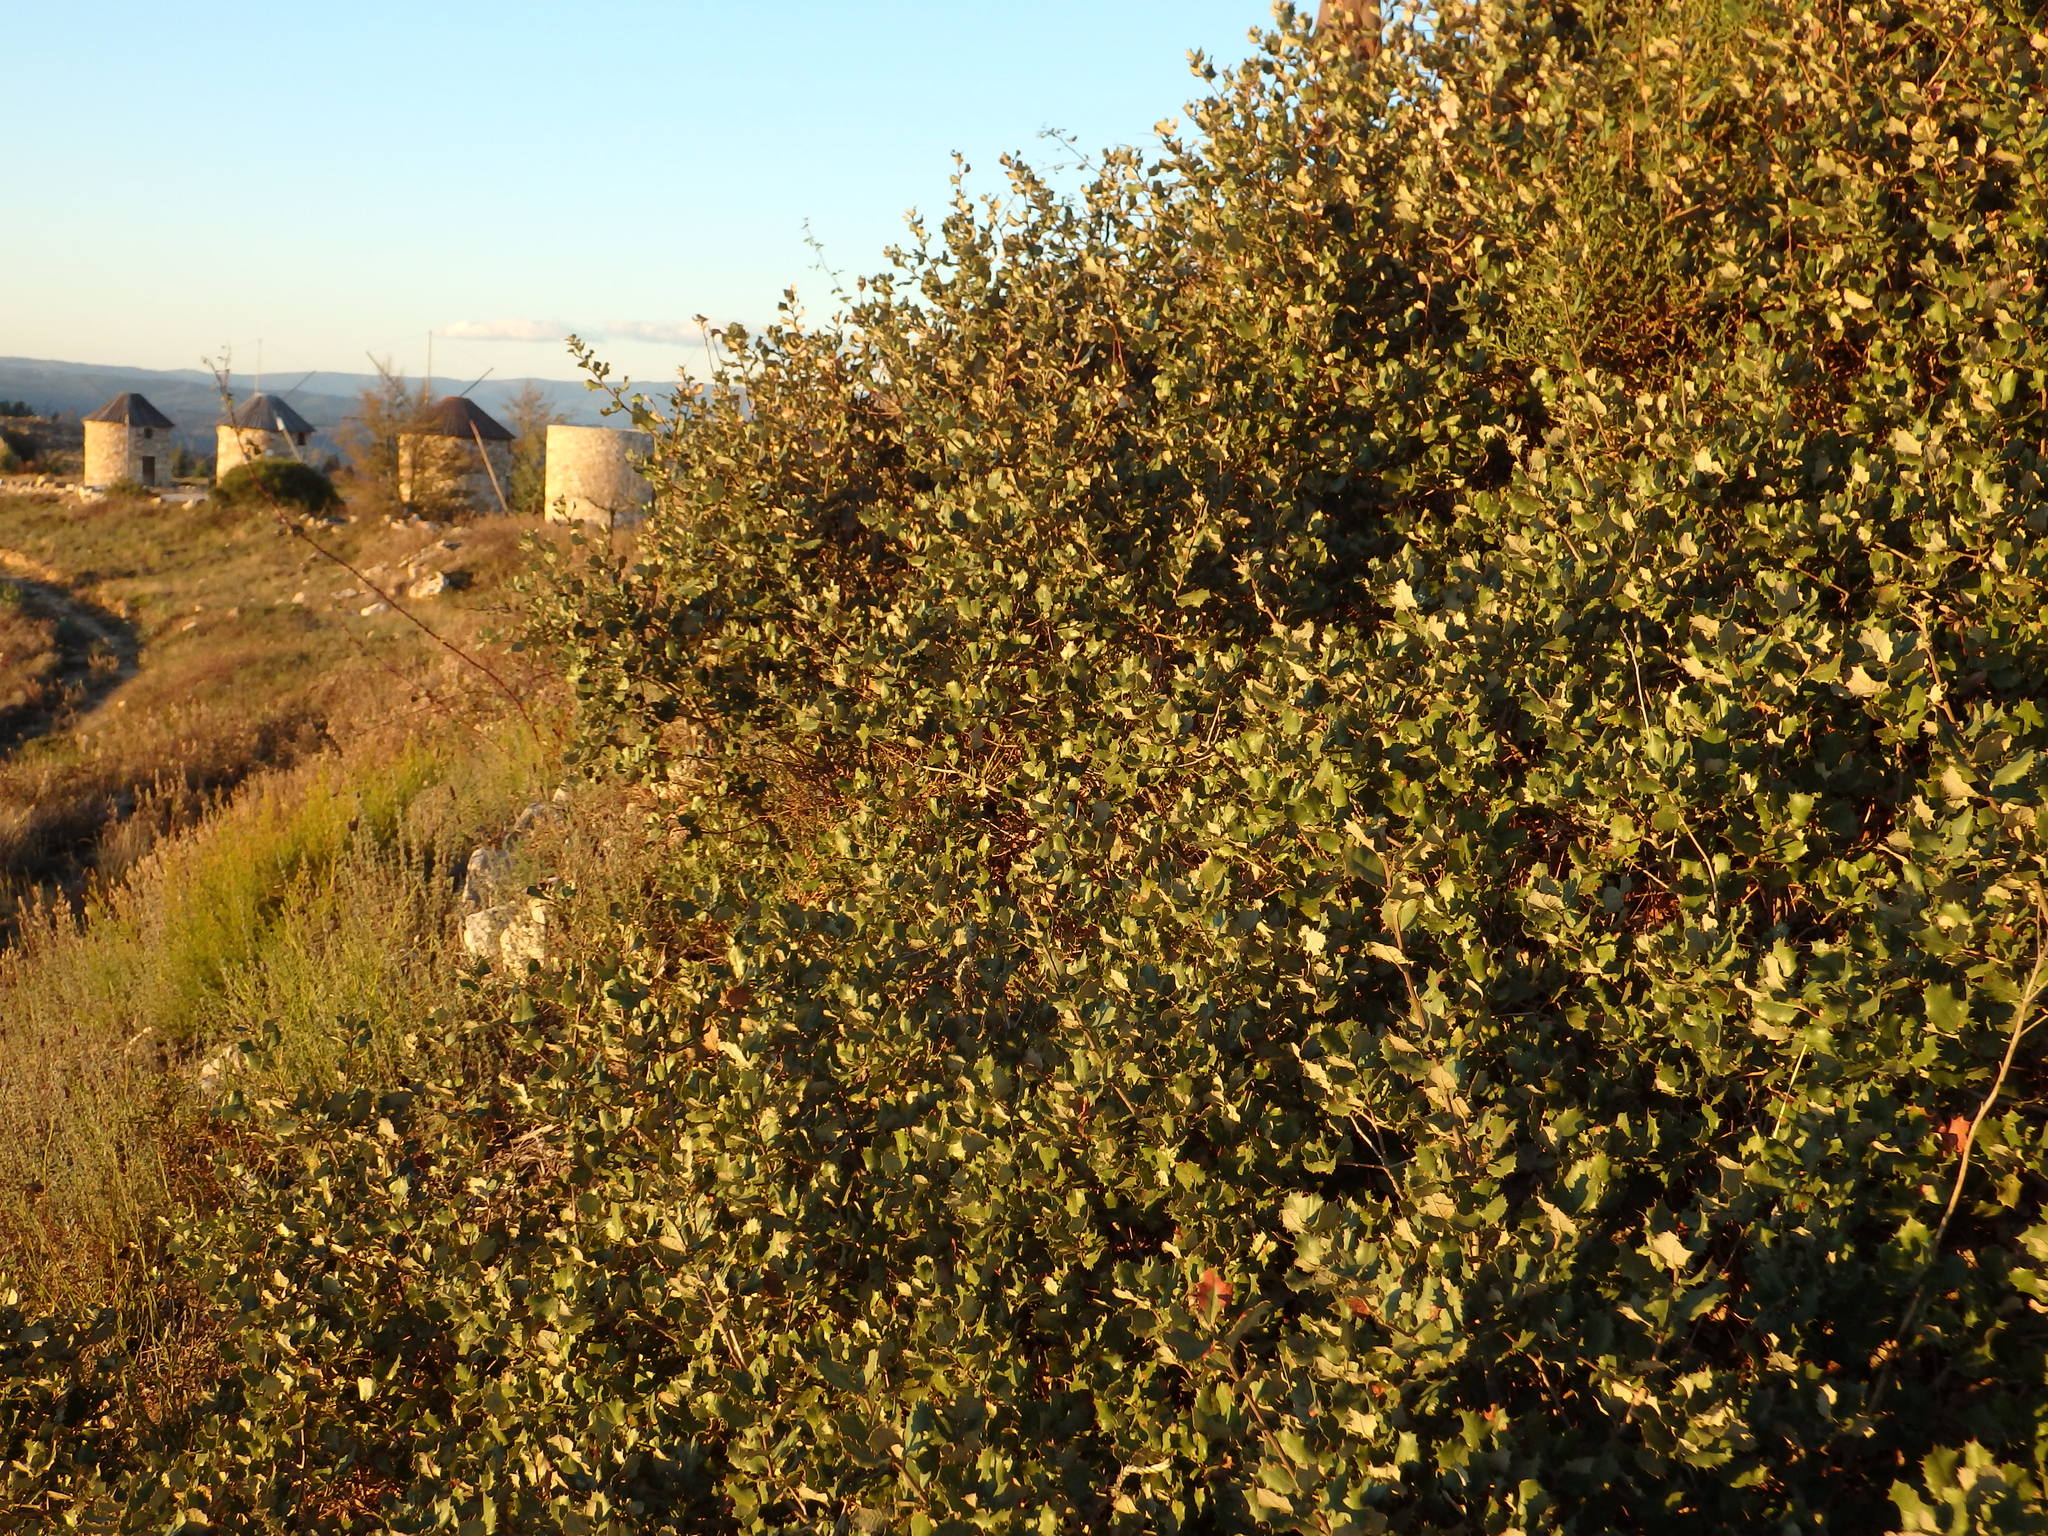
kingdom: Plantae
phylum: Tracheophyta
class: Magnoliopsida
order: Fagales
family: Fagaceae
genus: Quercus
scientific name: Quercus rotundifolia
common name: Holm oak
